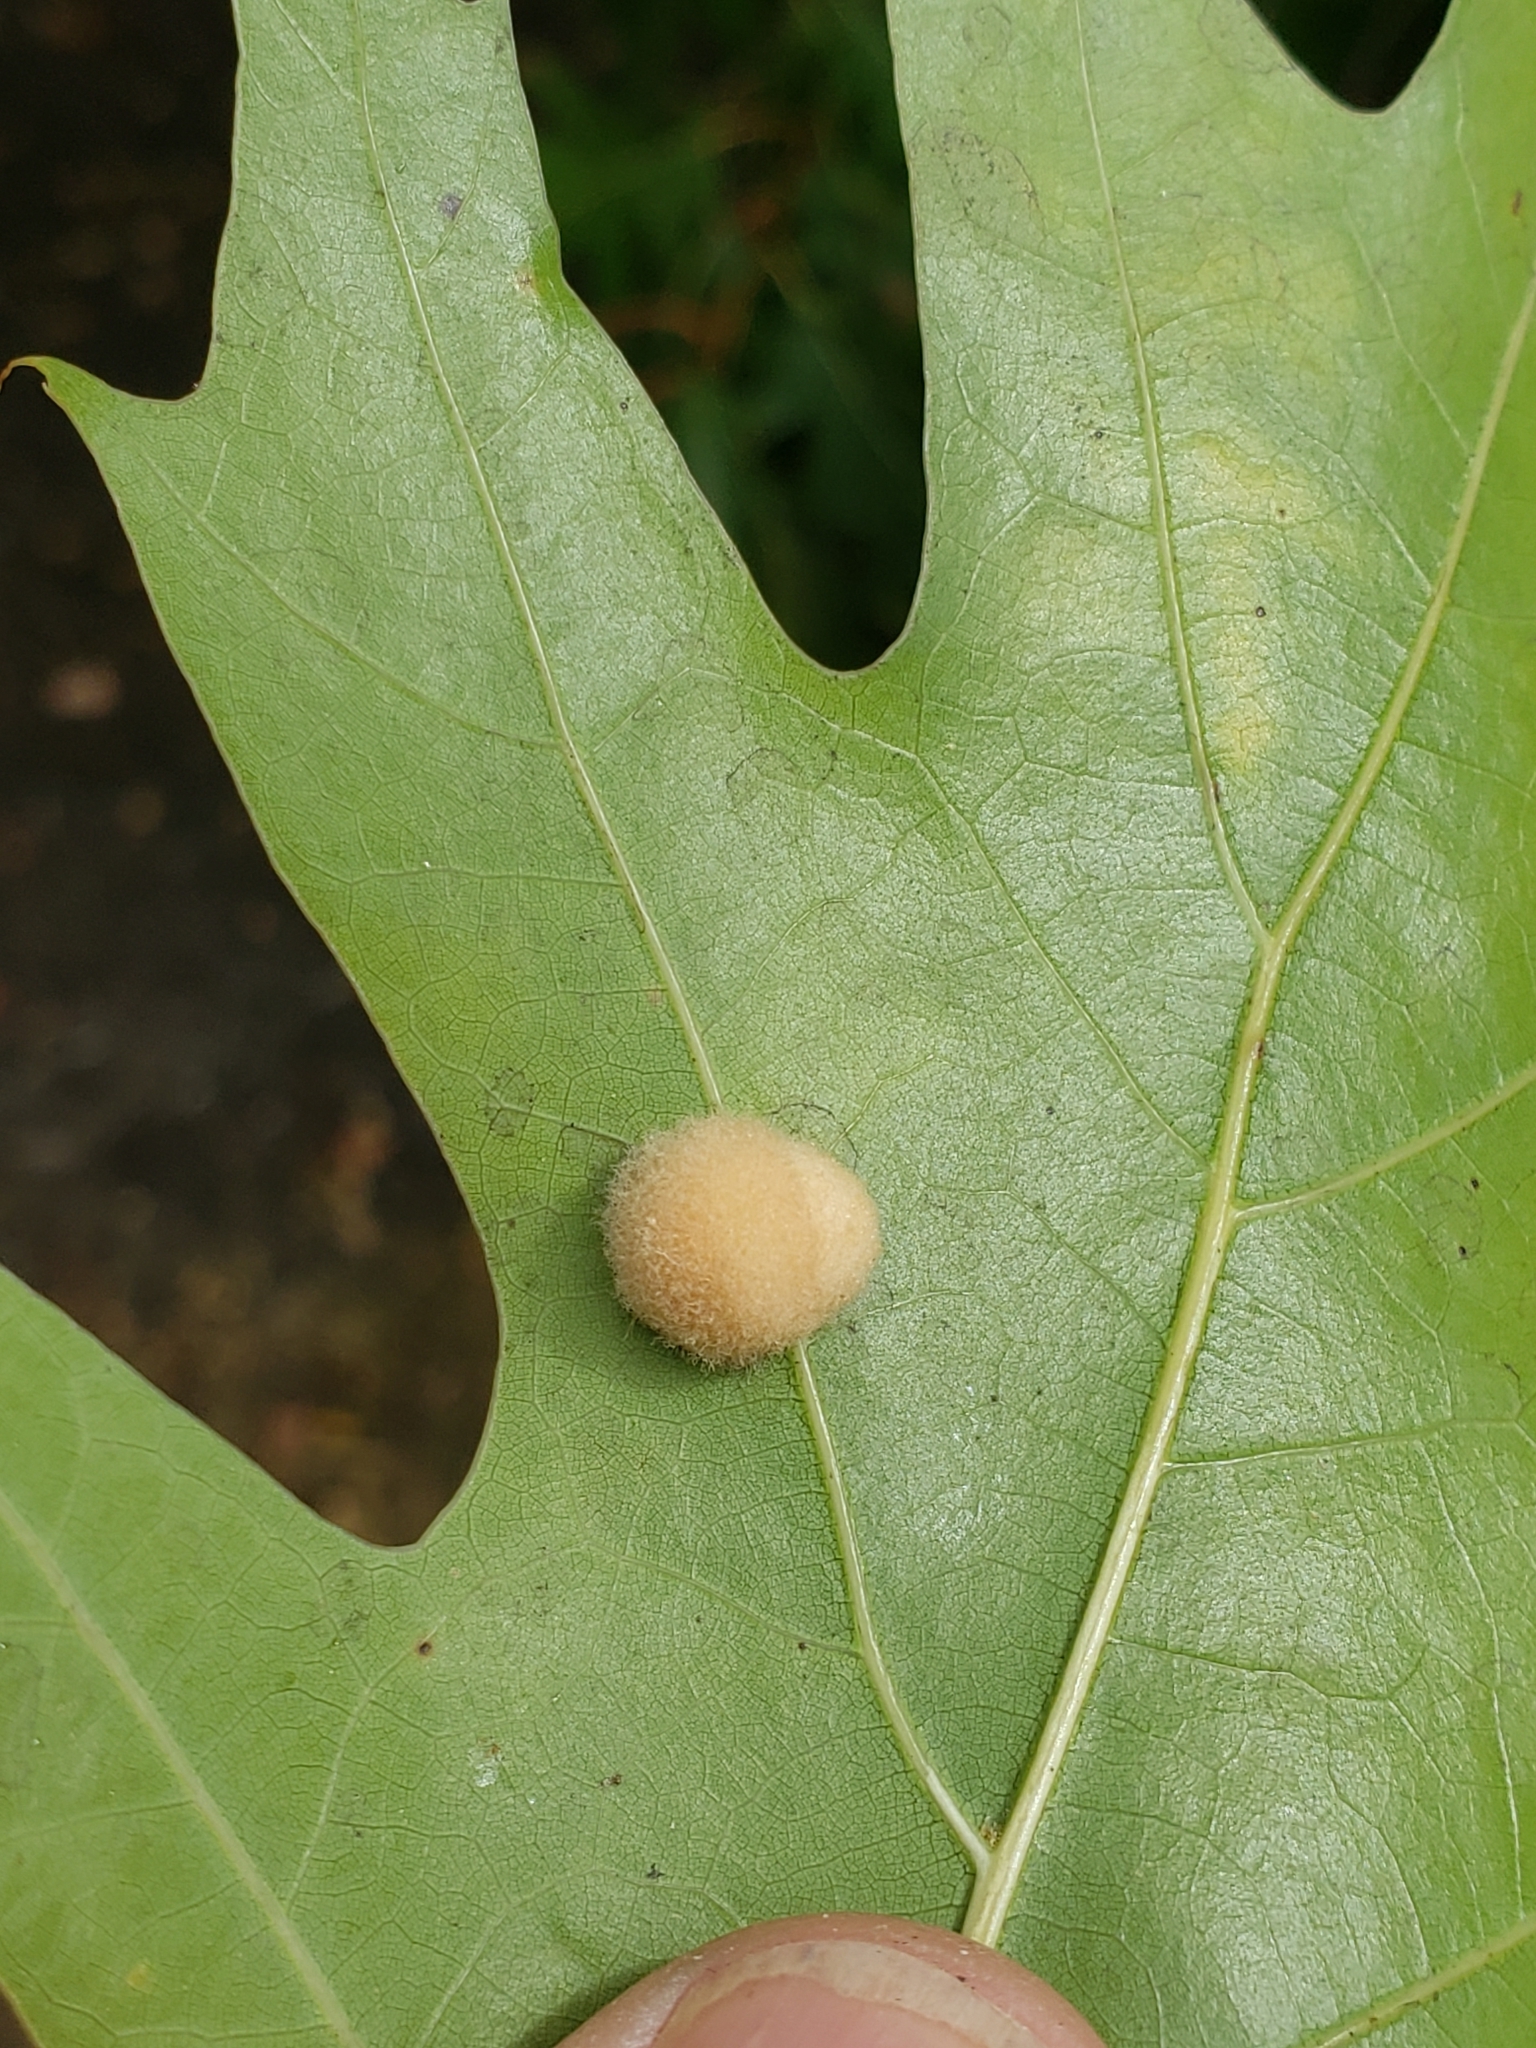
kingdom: Animalia
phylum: Arthropoda
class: Insecta
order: Hymenoptera
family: Cynipidae
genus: Callirhytis
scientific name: Callirhytis
